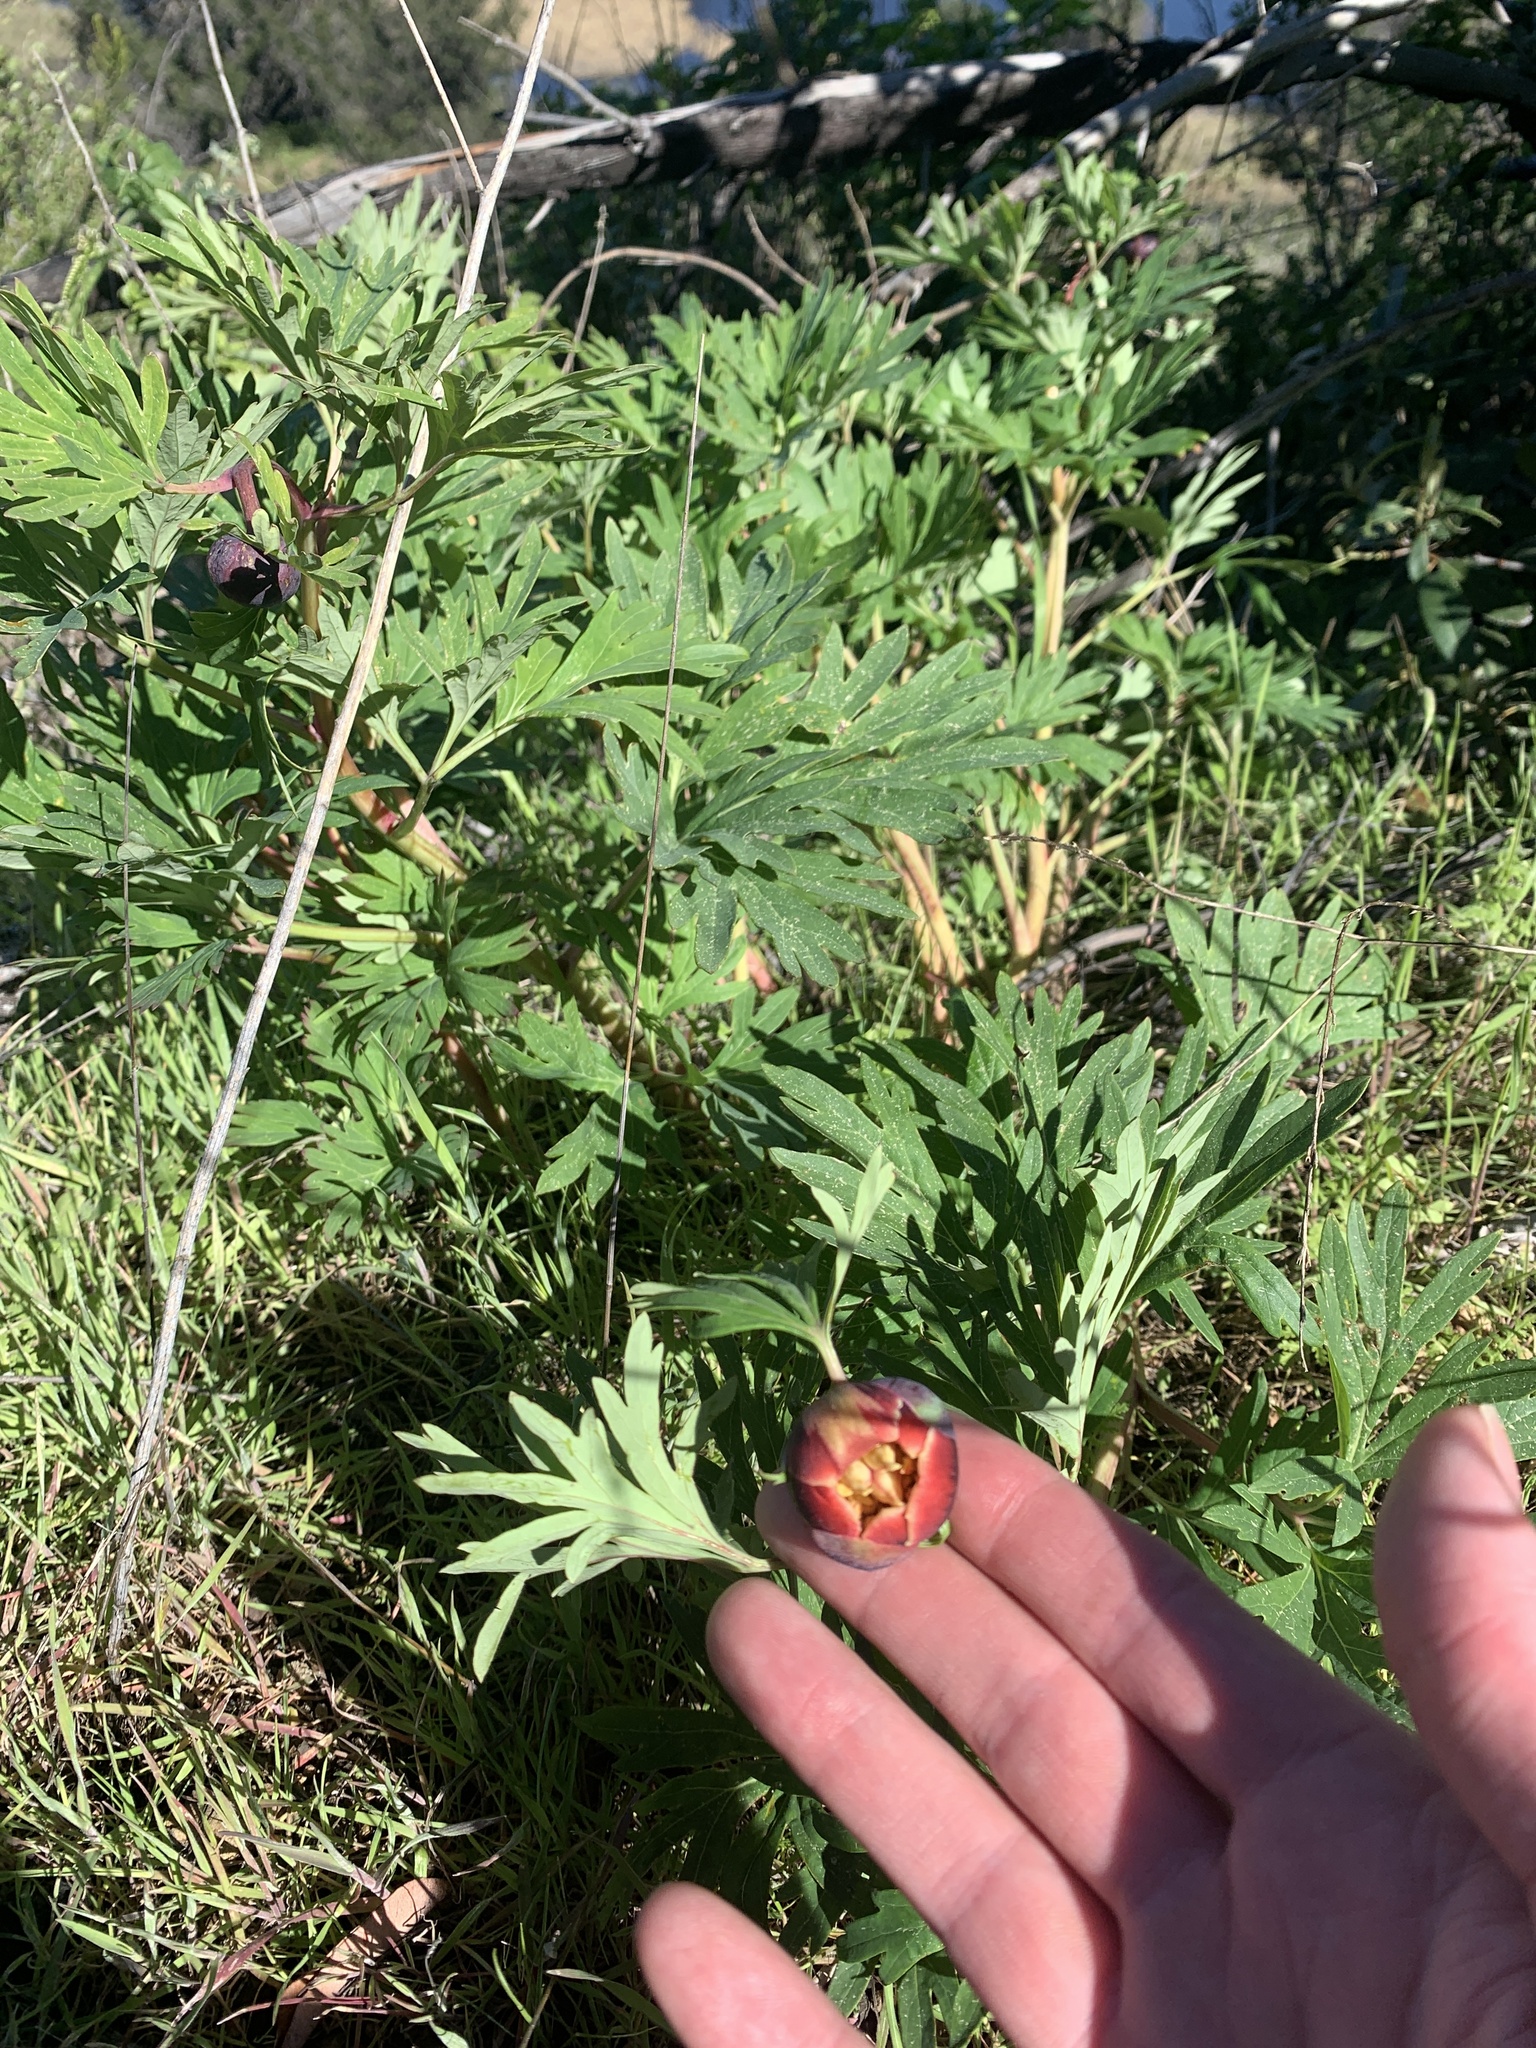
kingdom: Plantae
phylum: Tracheophyta
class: Magnoliopsida
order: Saxifragales
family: Paeoniaceae
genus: Paeonia
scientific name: Paeonia californica
